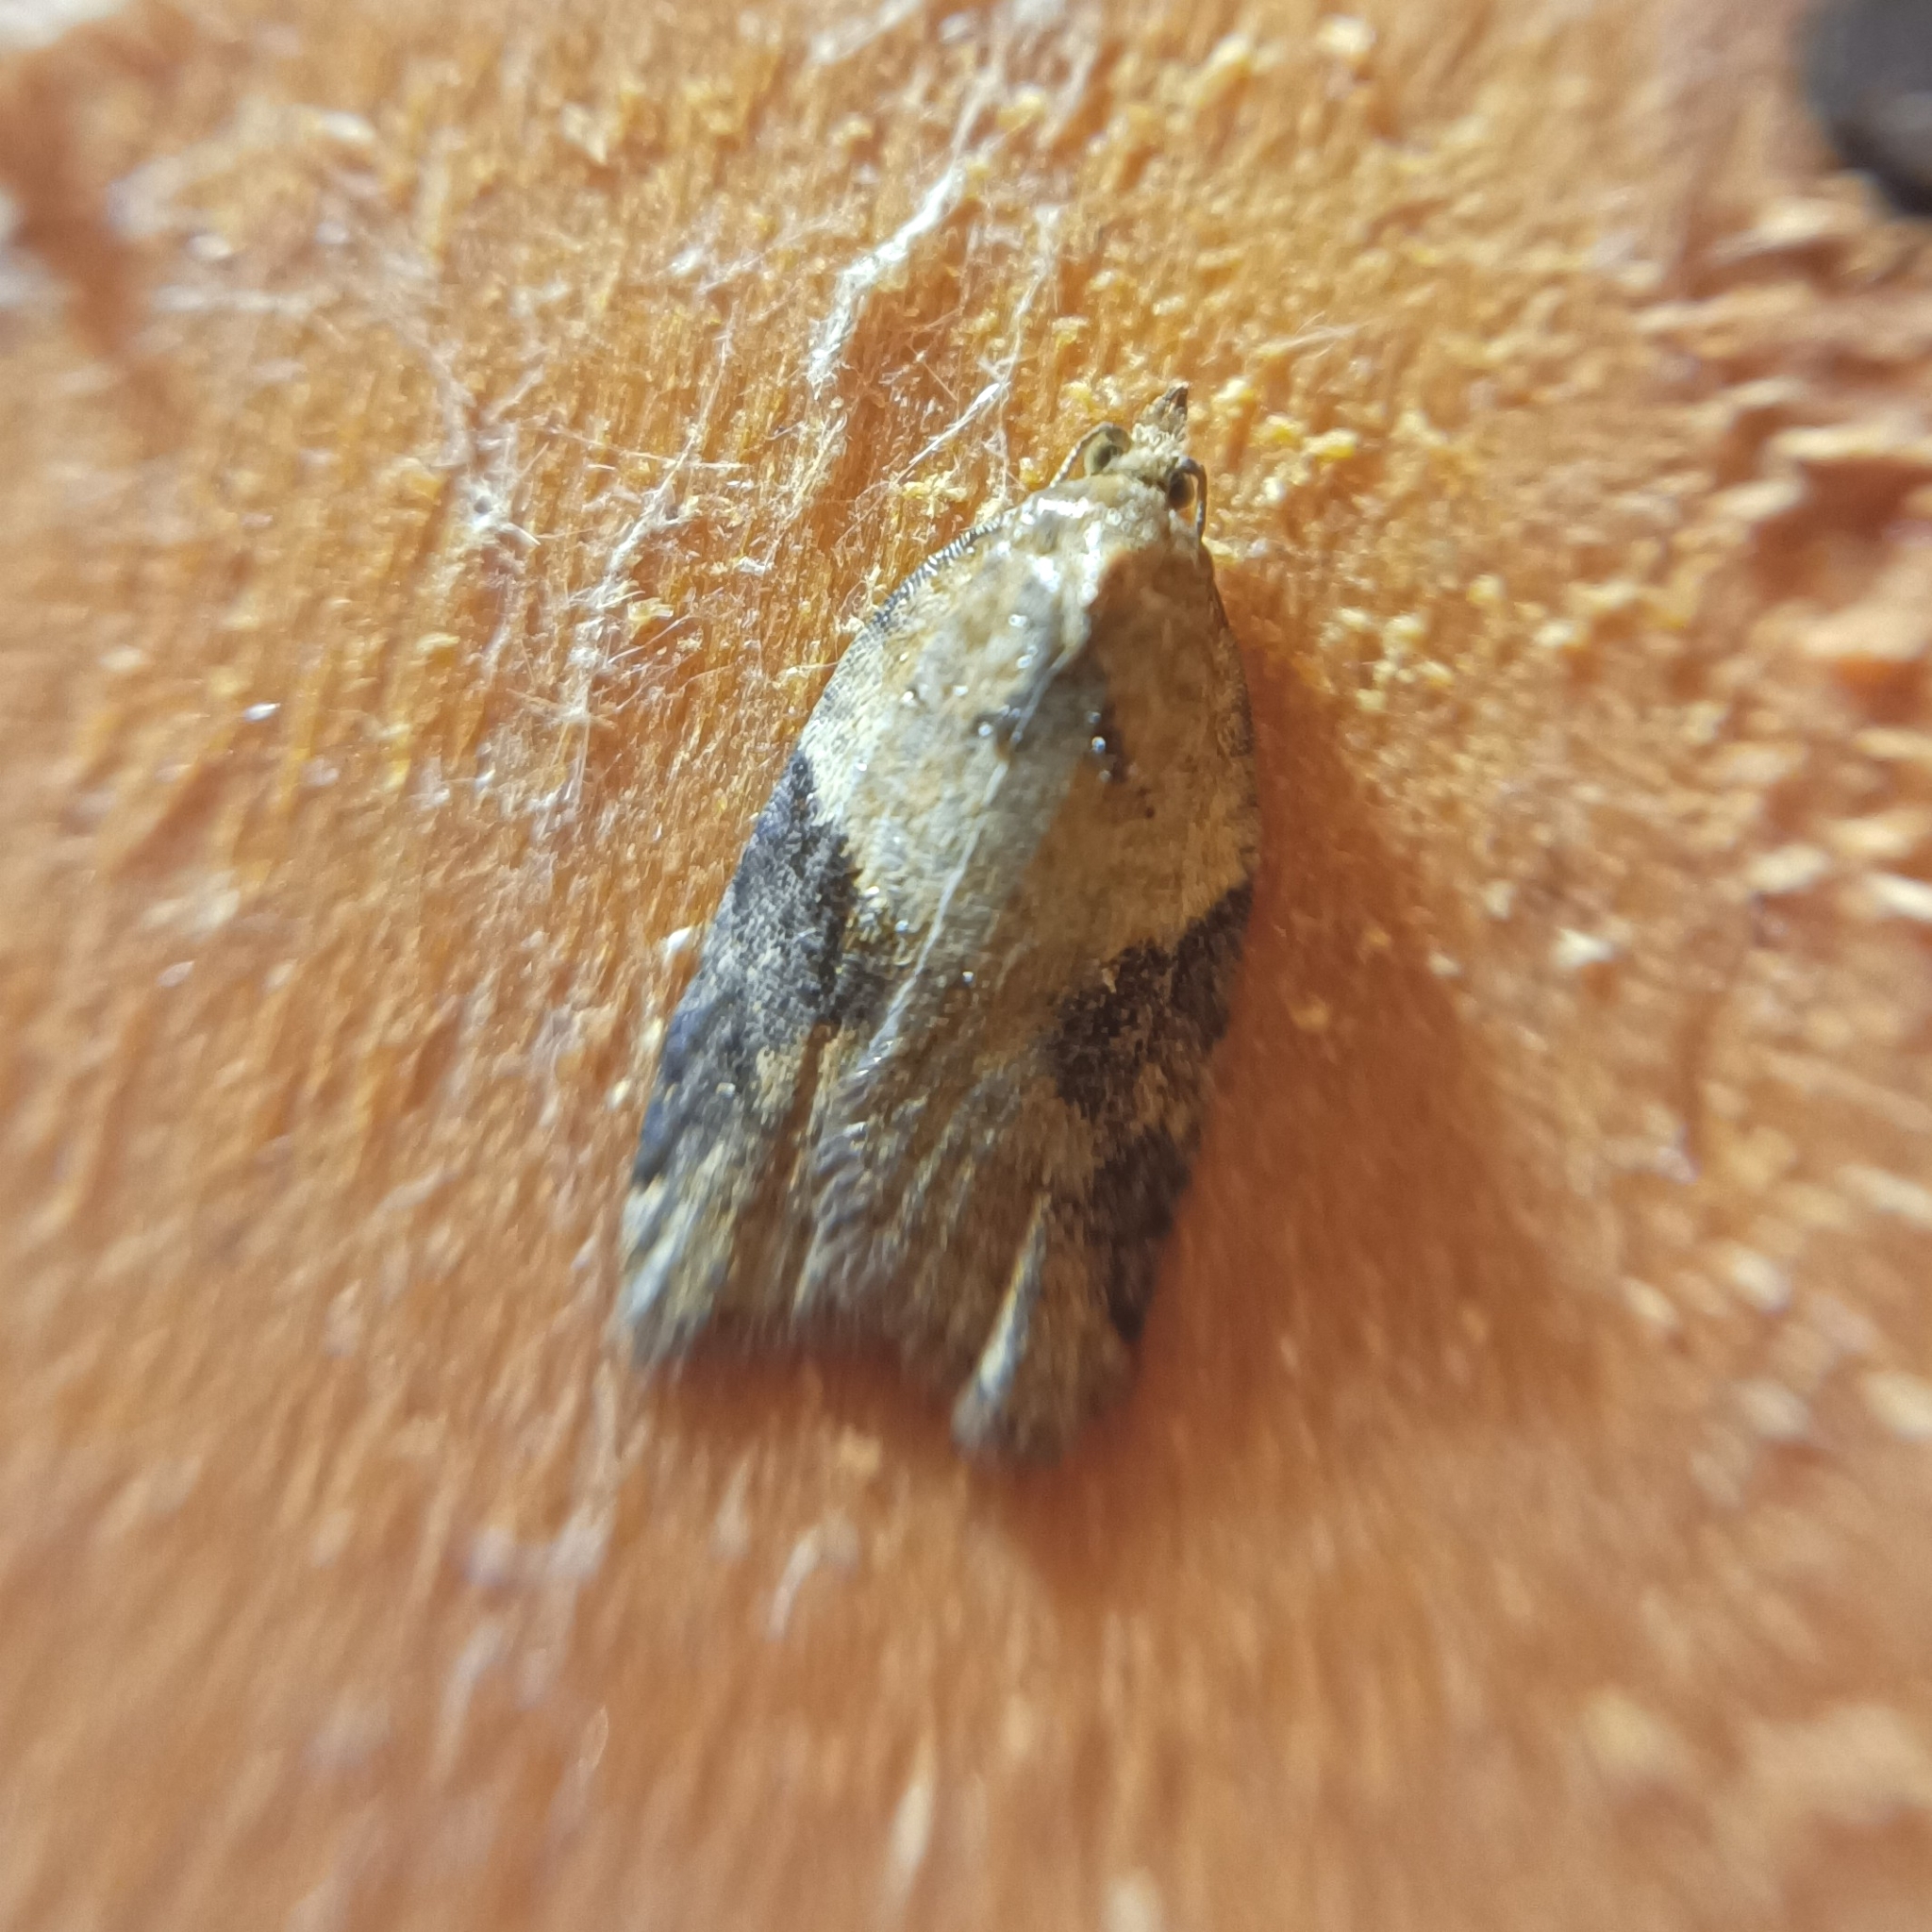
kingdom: Animalia
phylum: Arthropoda
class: Insecta
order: Lepidoptera
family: Tortricidae
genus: Acleris
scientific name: Acleris laterana
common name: Dark-triangle button
